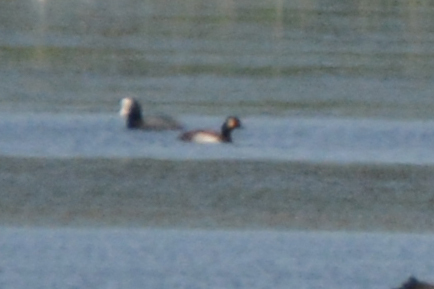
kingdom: Animalia
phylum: Chordata
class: Aves
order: Podicipediformes
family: Podicipedidae
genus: Podiceps
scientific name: Podiceps nigricollis
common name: Black-necked grebe
